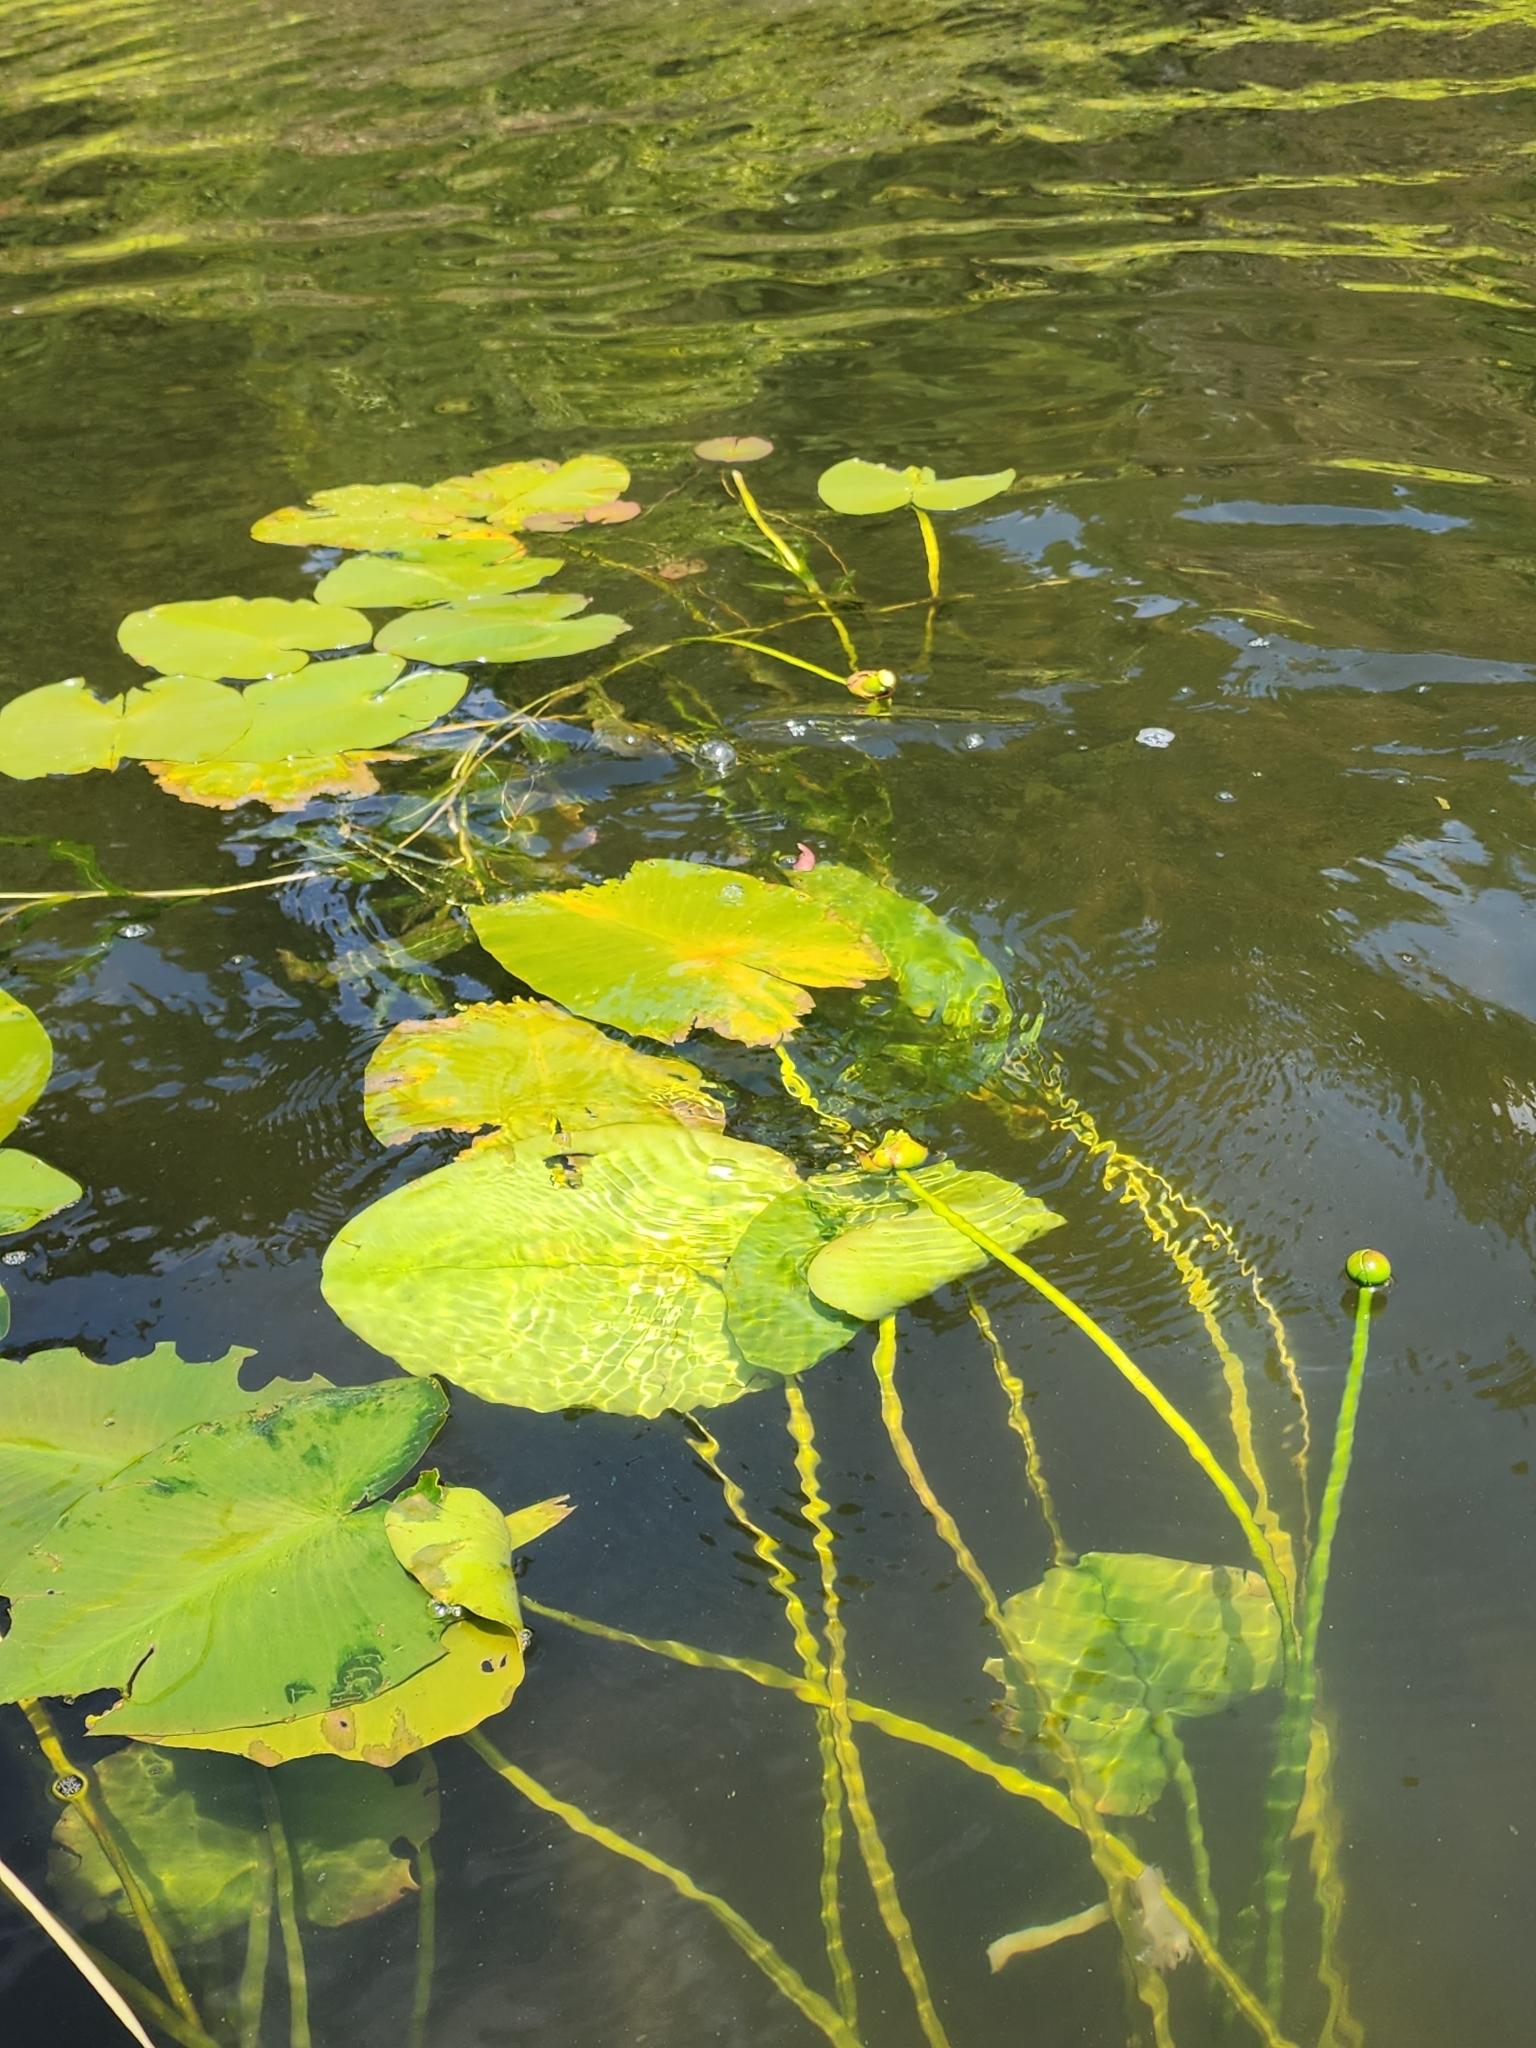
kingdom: Plantae
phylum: Tracheophyta
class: Magnoliopsida
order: Nymphaeales
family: Nymphaeaceae
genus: Nuphar
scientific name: Nuphar variegata
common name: Beaver-root
